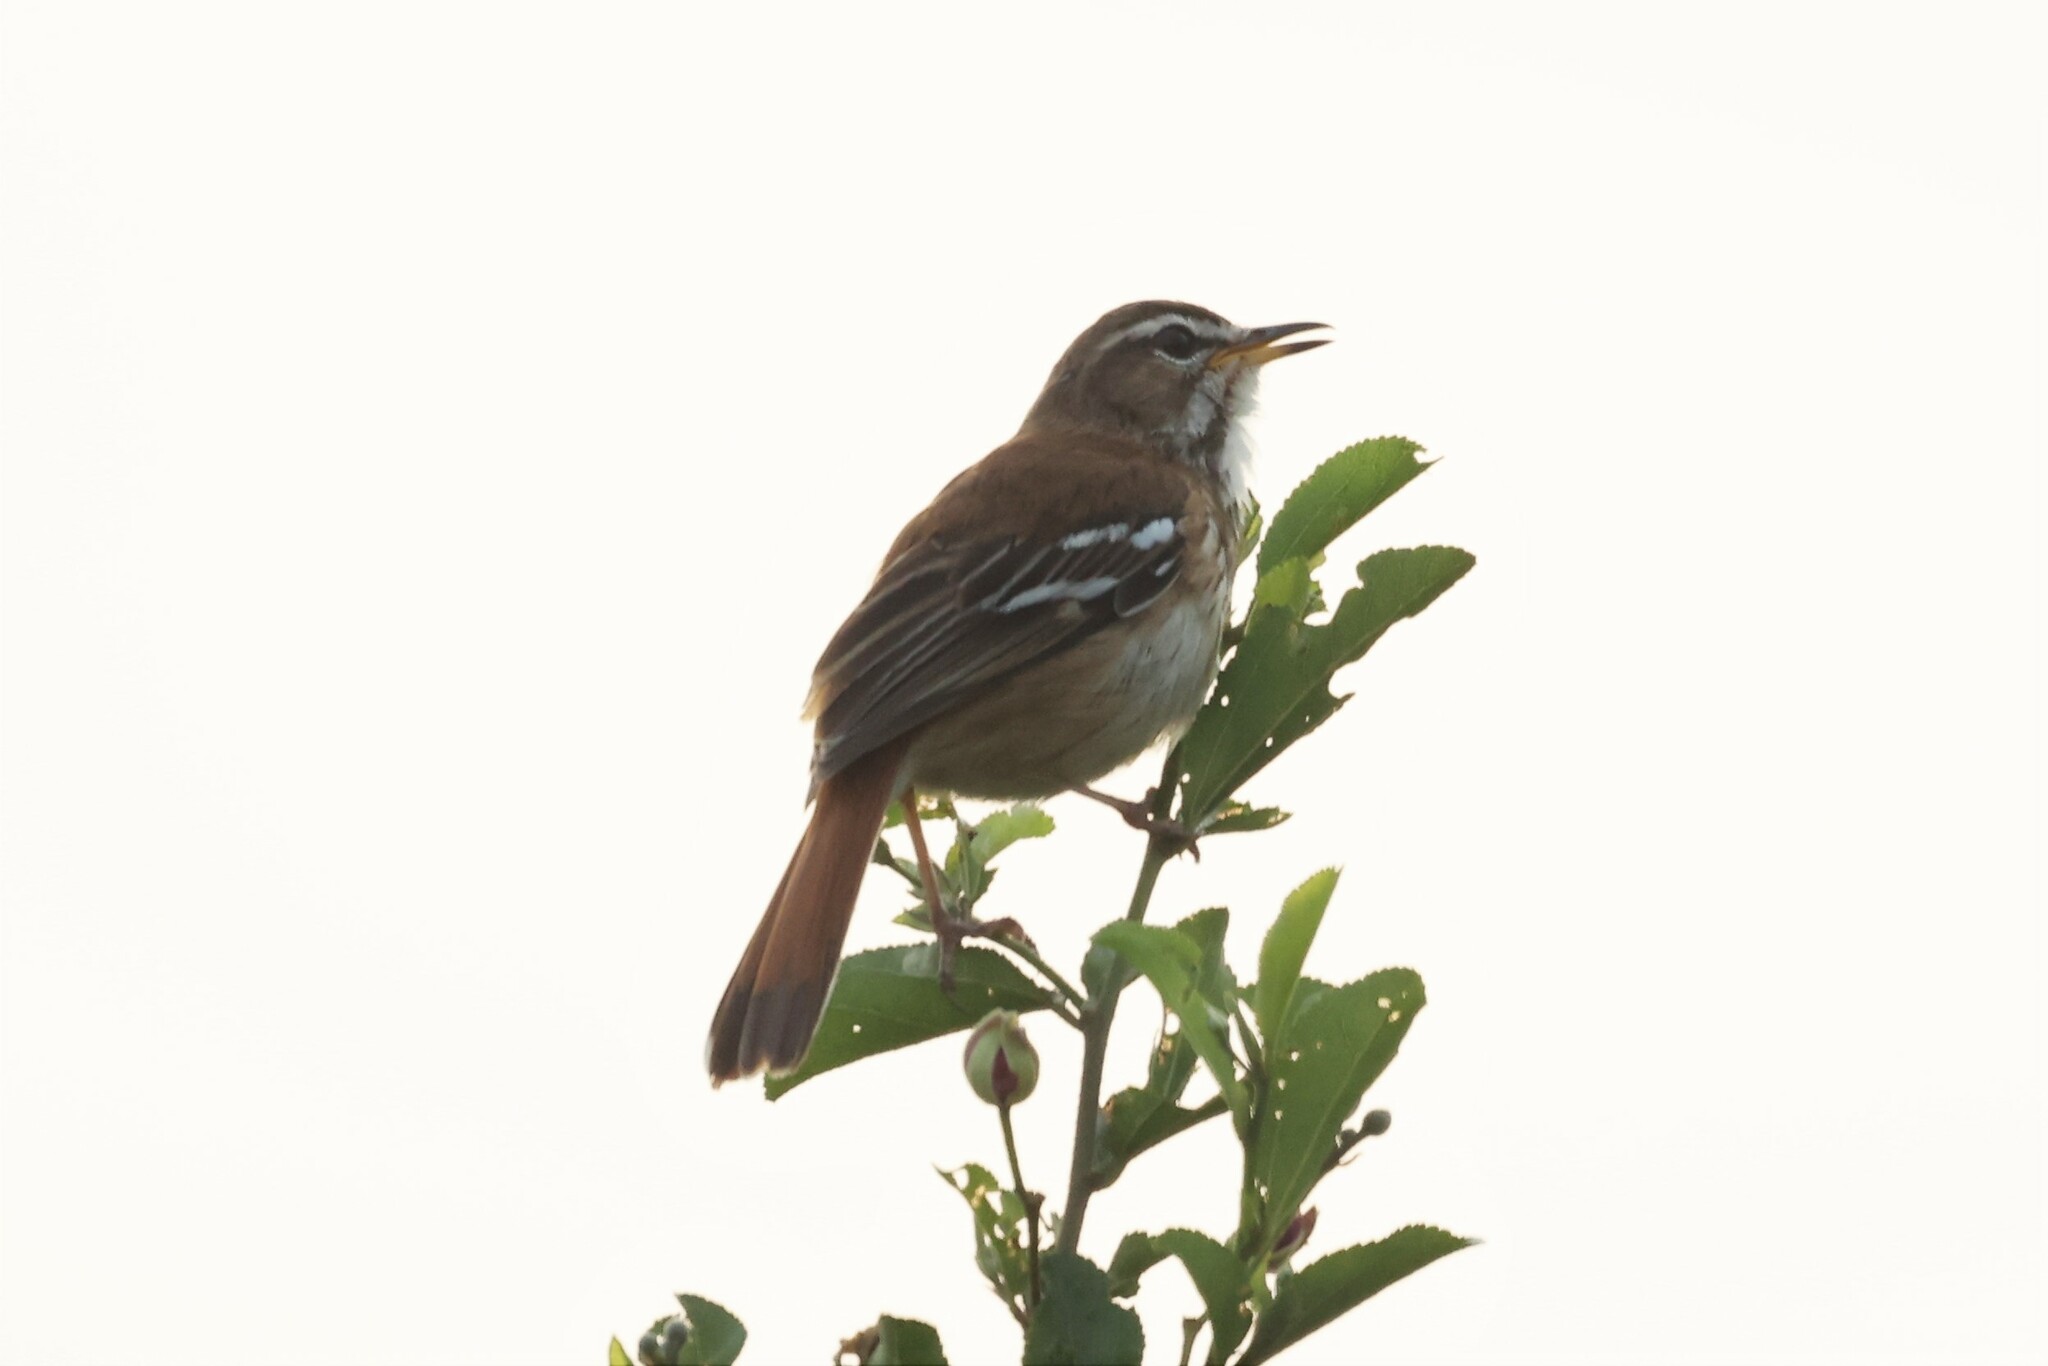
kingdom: Animalia
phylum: Chordata
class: Aves
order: Passeriformes
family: Muscicapidae
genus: Erythropygia
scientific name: Erythropygia leucophrys
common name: White-browed scrub robin
